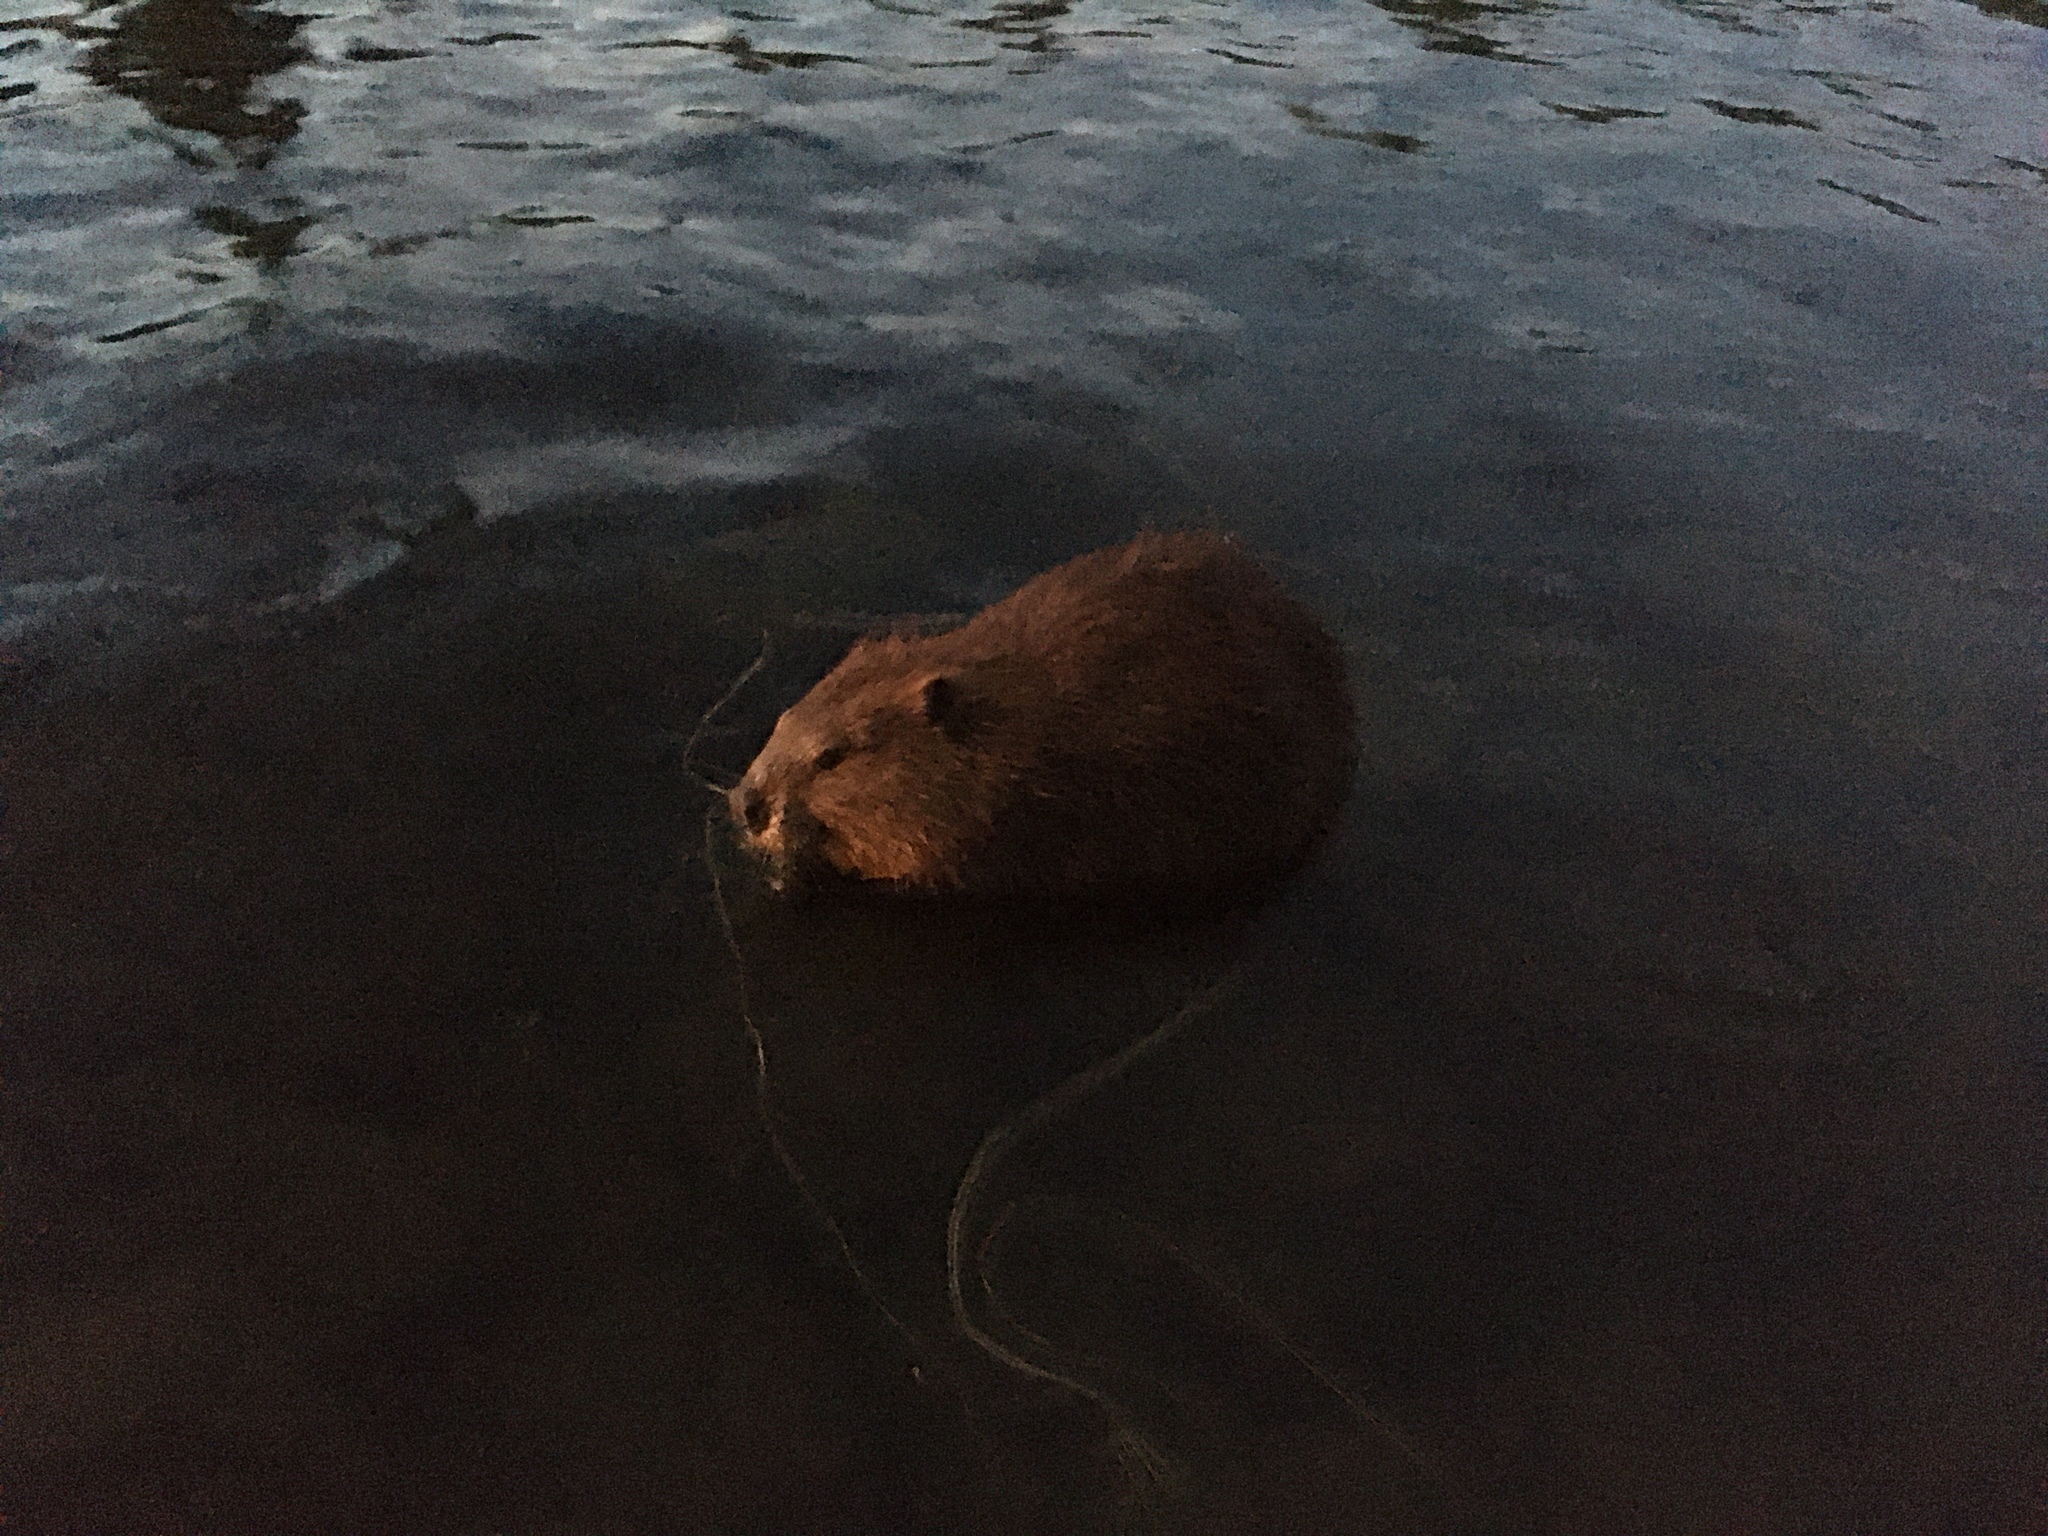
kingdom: Animalia
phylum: Chordata
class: Mammalia
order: Rodentia
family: Castoridae
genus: Castor
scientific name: Castor canadensis
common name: American beaver
